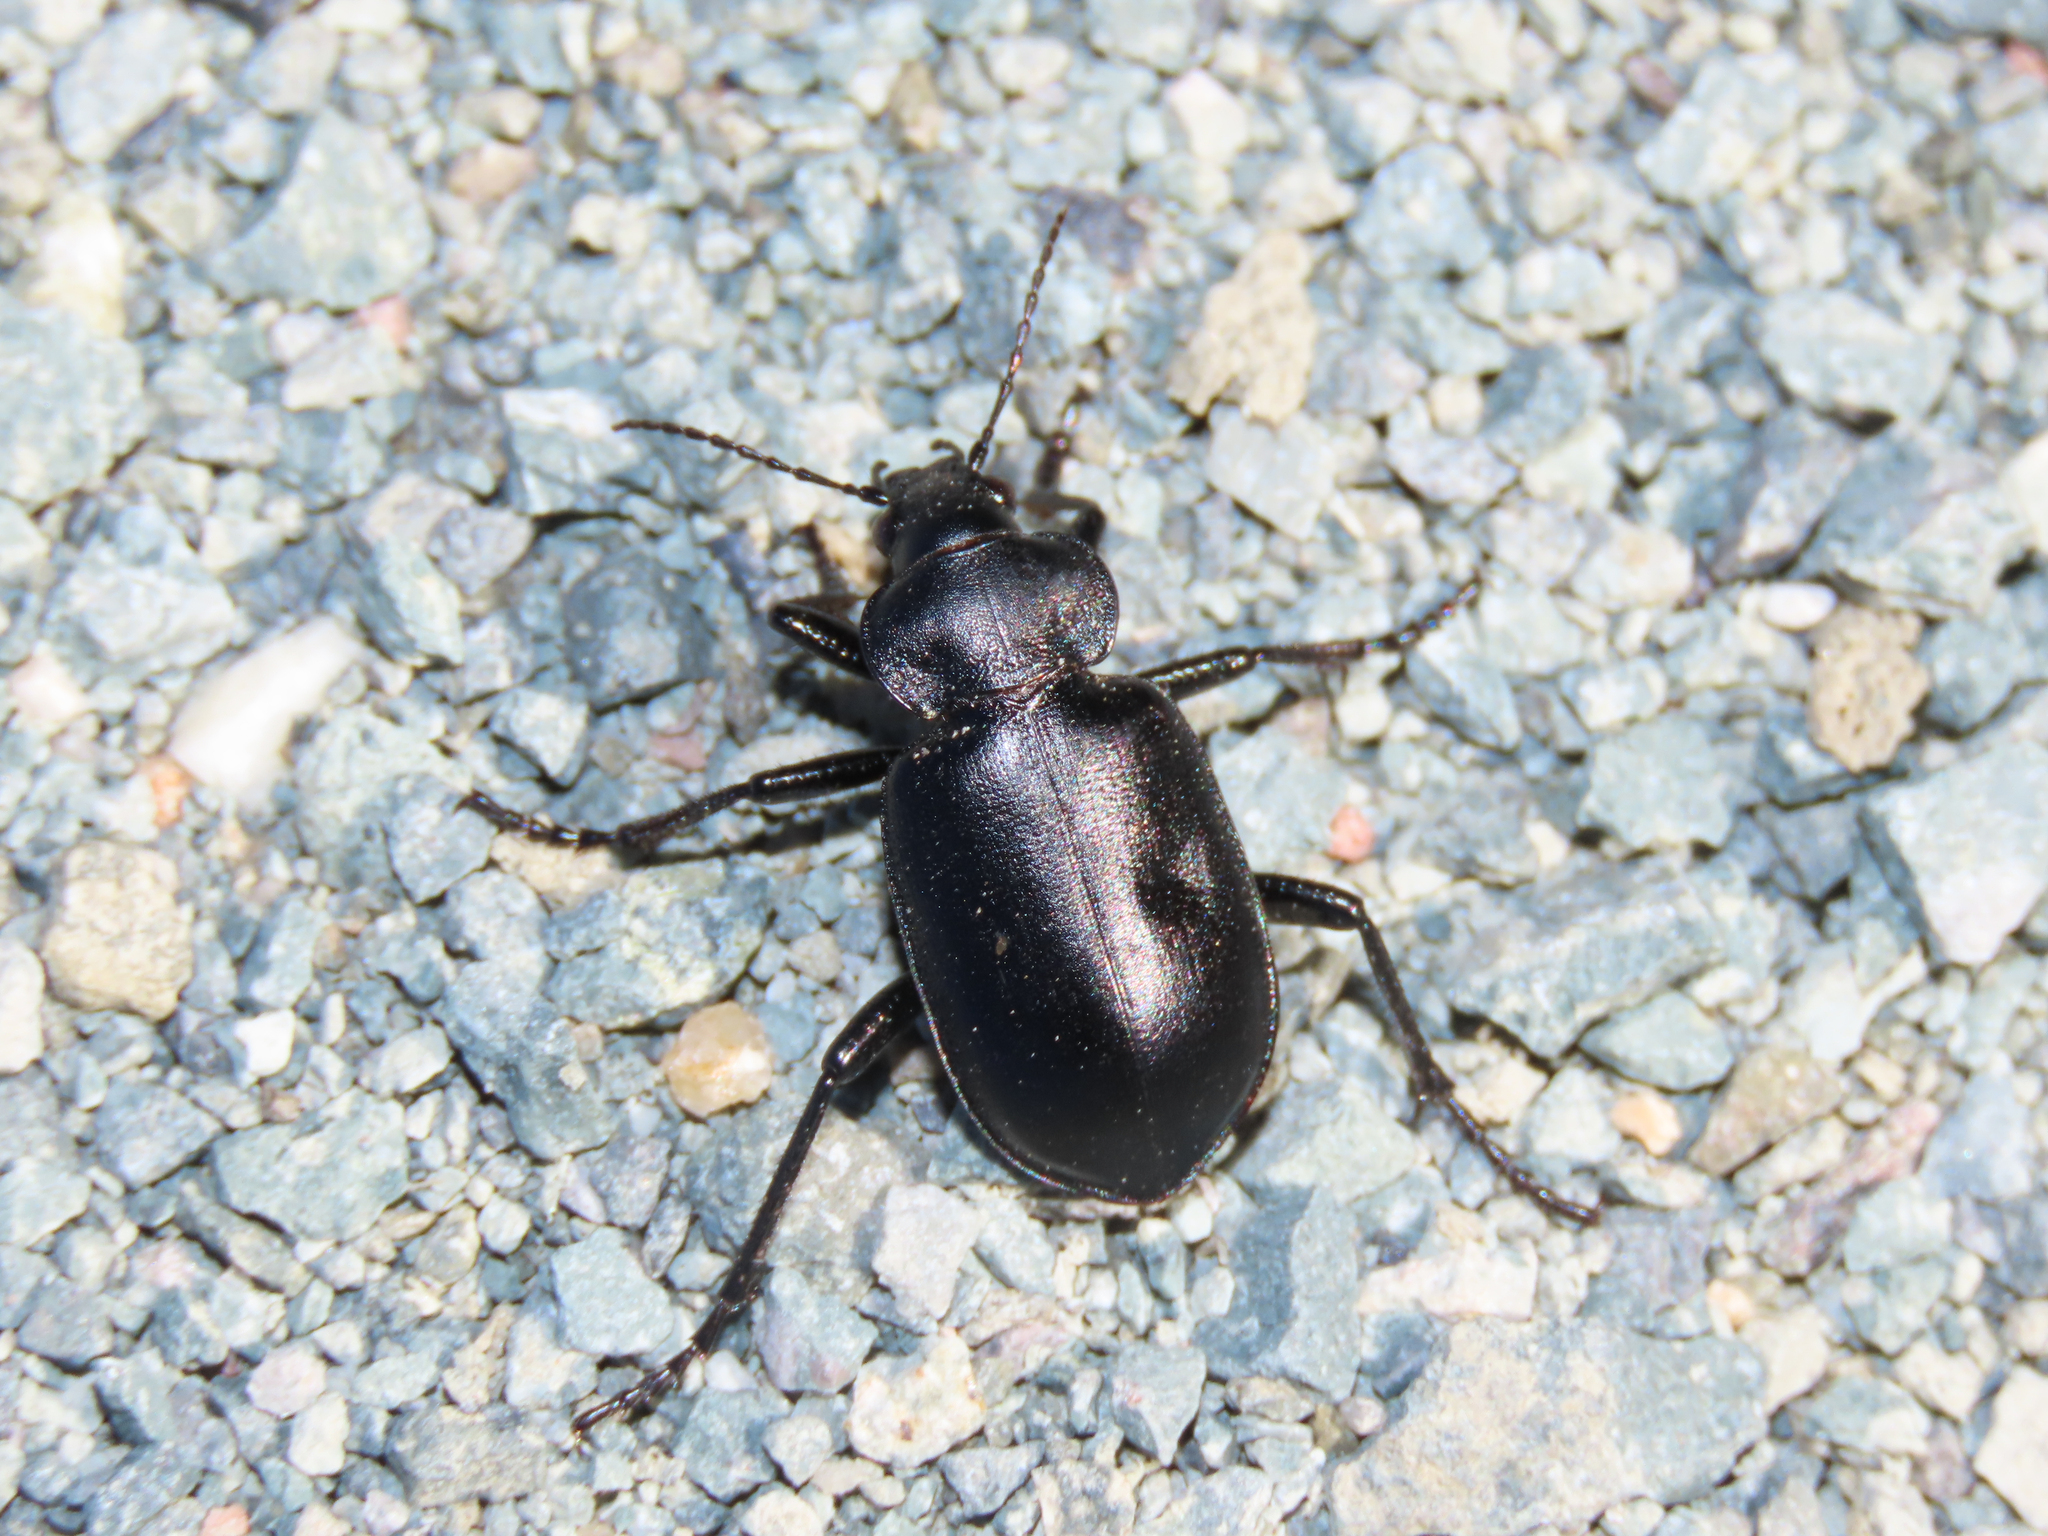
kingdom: Animalia
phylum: Arthropoda
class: Insecta
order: Coleoptera
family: Carabidae
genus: Calosoma
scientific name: Calosoma semilaeve
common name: Black calosoma beetle
